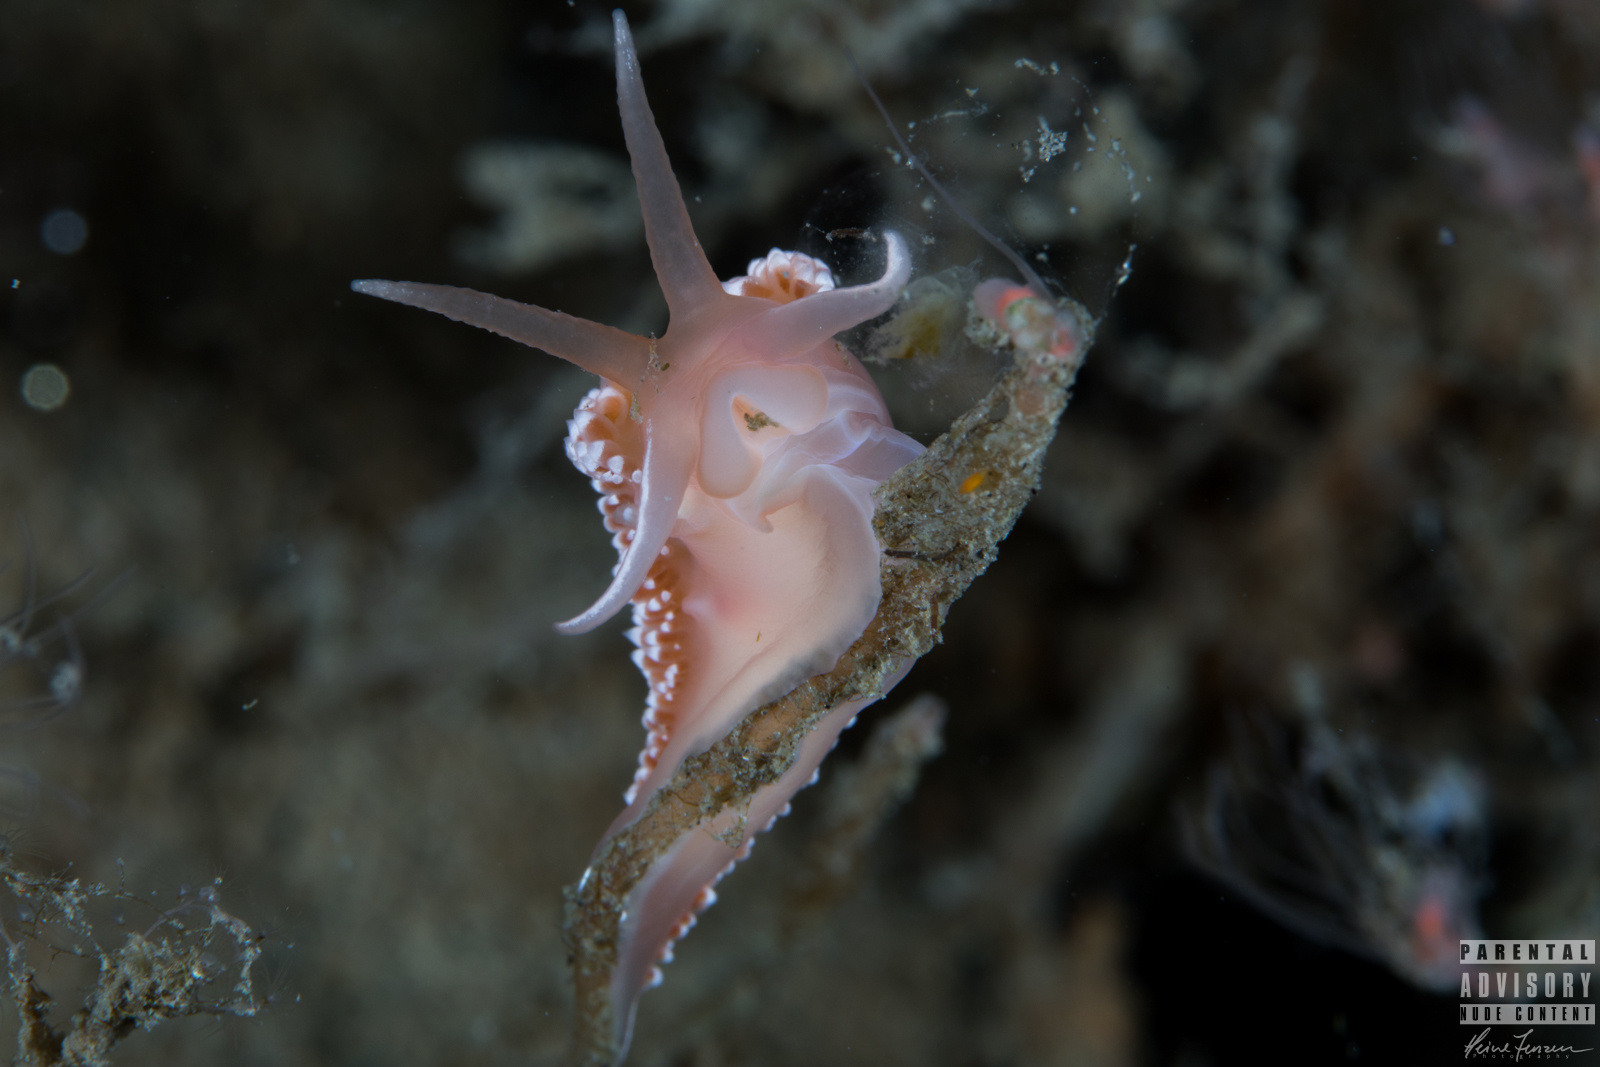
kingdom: Animalia
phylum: Mollusca
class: Gastropoda
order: Nudibranchia
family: Coryphellidae
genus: Coryphella
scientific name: Coryphella verrucosa
